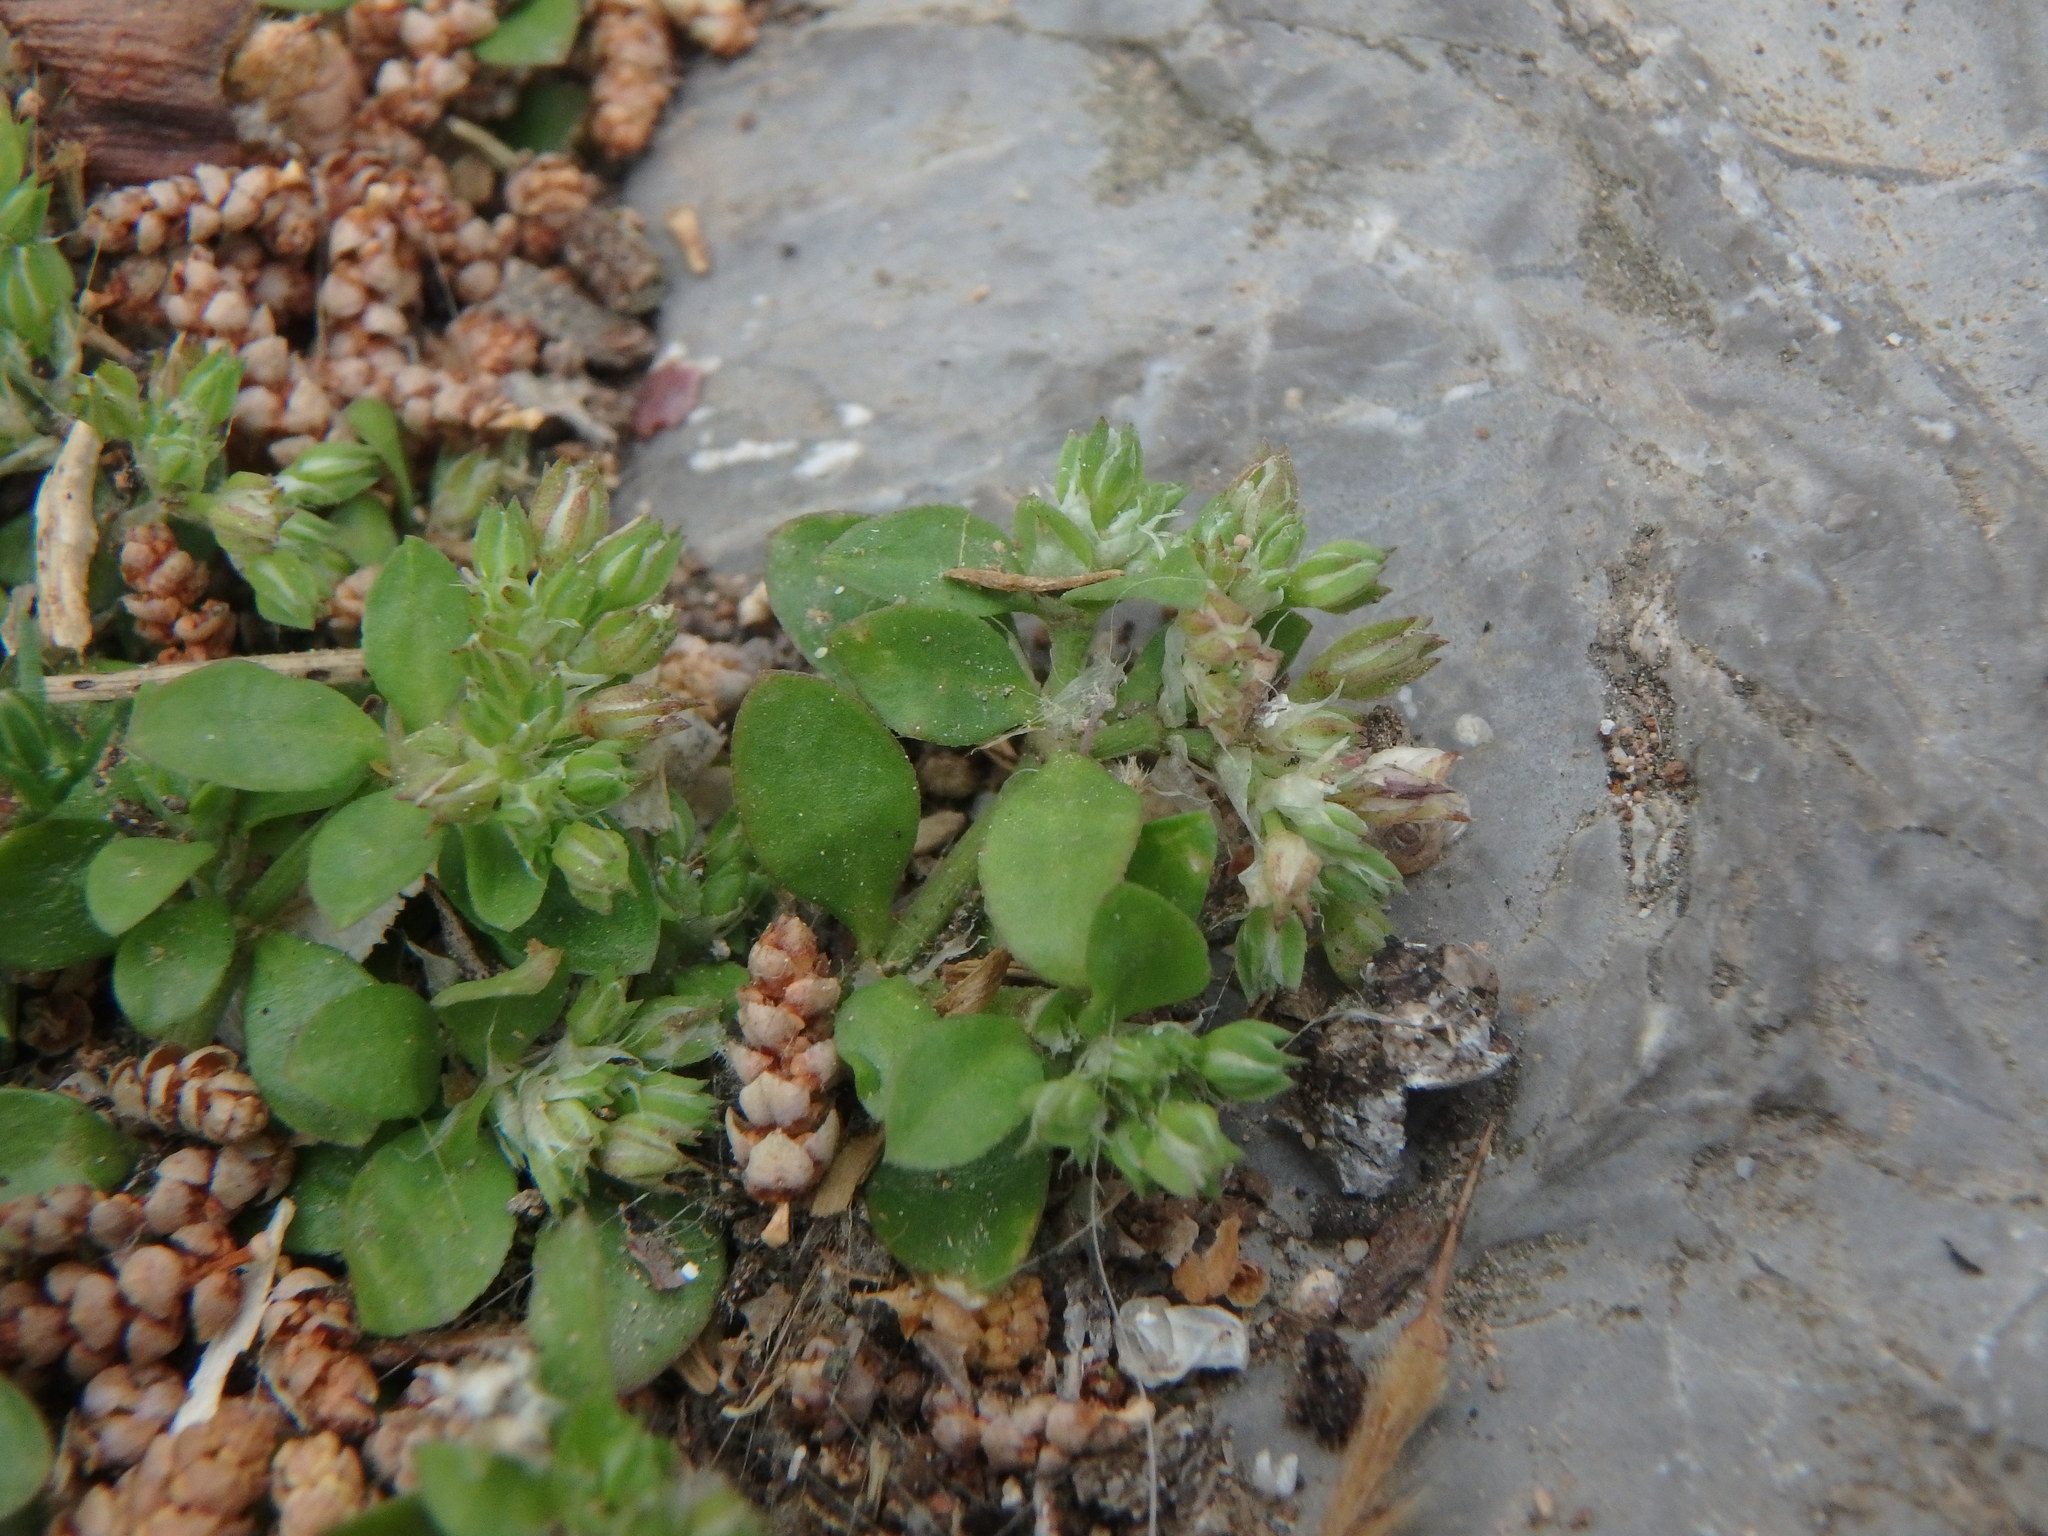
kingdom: Plantae
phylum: Tracheophyta
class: Magnoliopsida
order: Caryophyllales
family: Caryophyllaceae
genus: Polycarpon
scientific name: Polycarpon tetraphyllum
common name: Four-leaved all-seed
